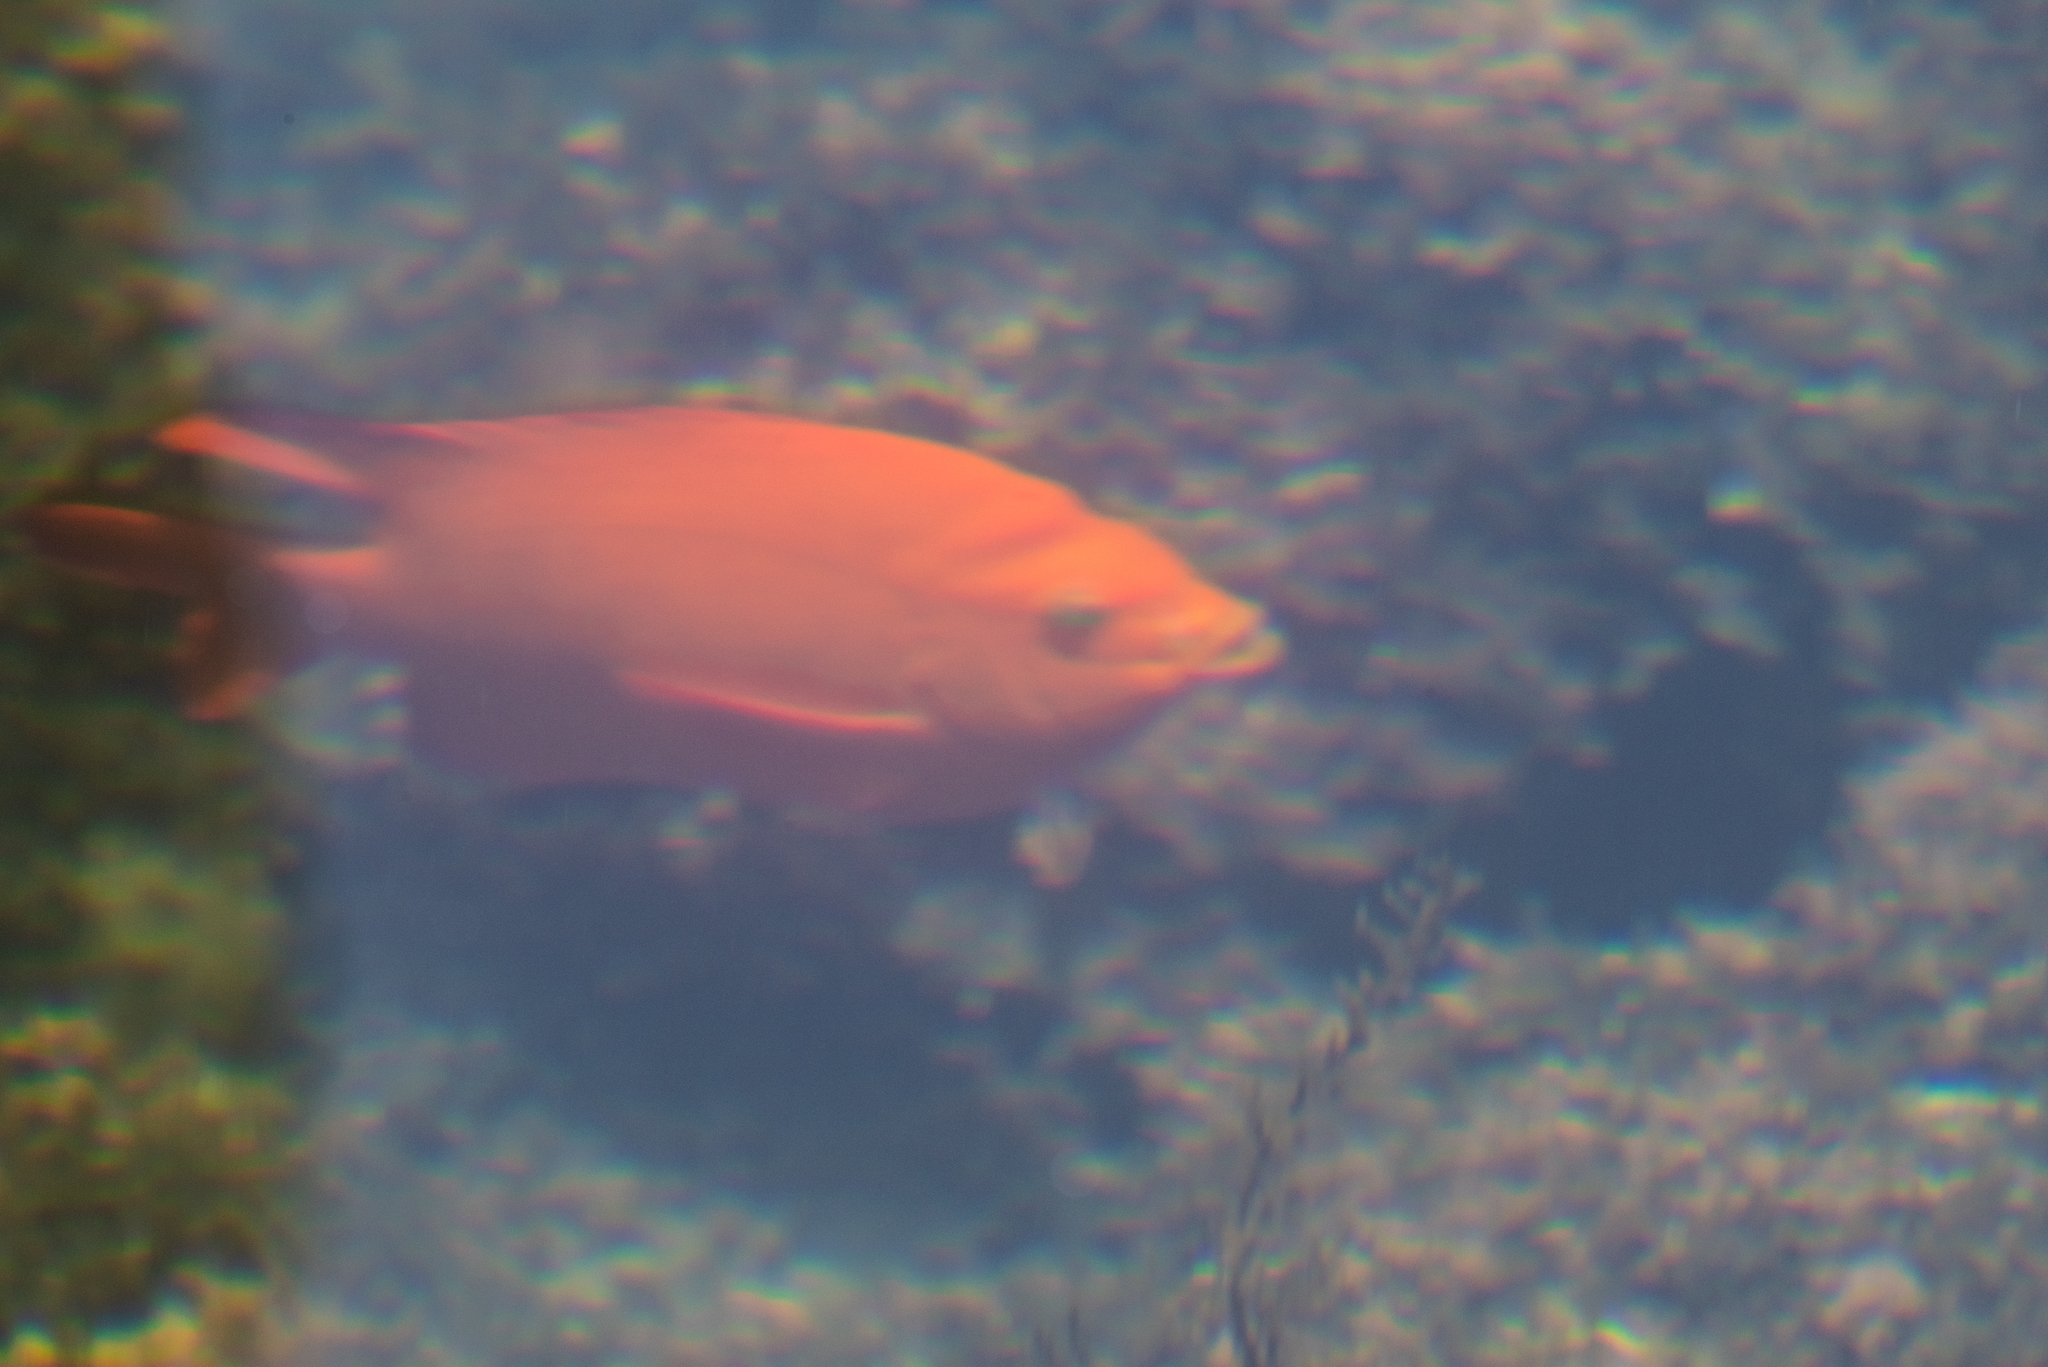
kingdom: Animalia
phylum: Chordata
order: Perciformes
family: Pomacentridae
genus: Hypsypops
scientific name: Hypsypops rubicundus
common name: Garibaldi
